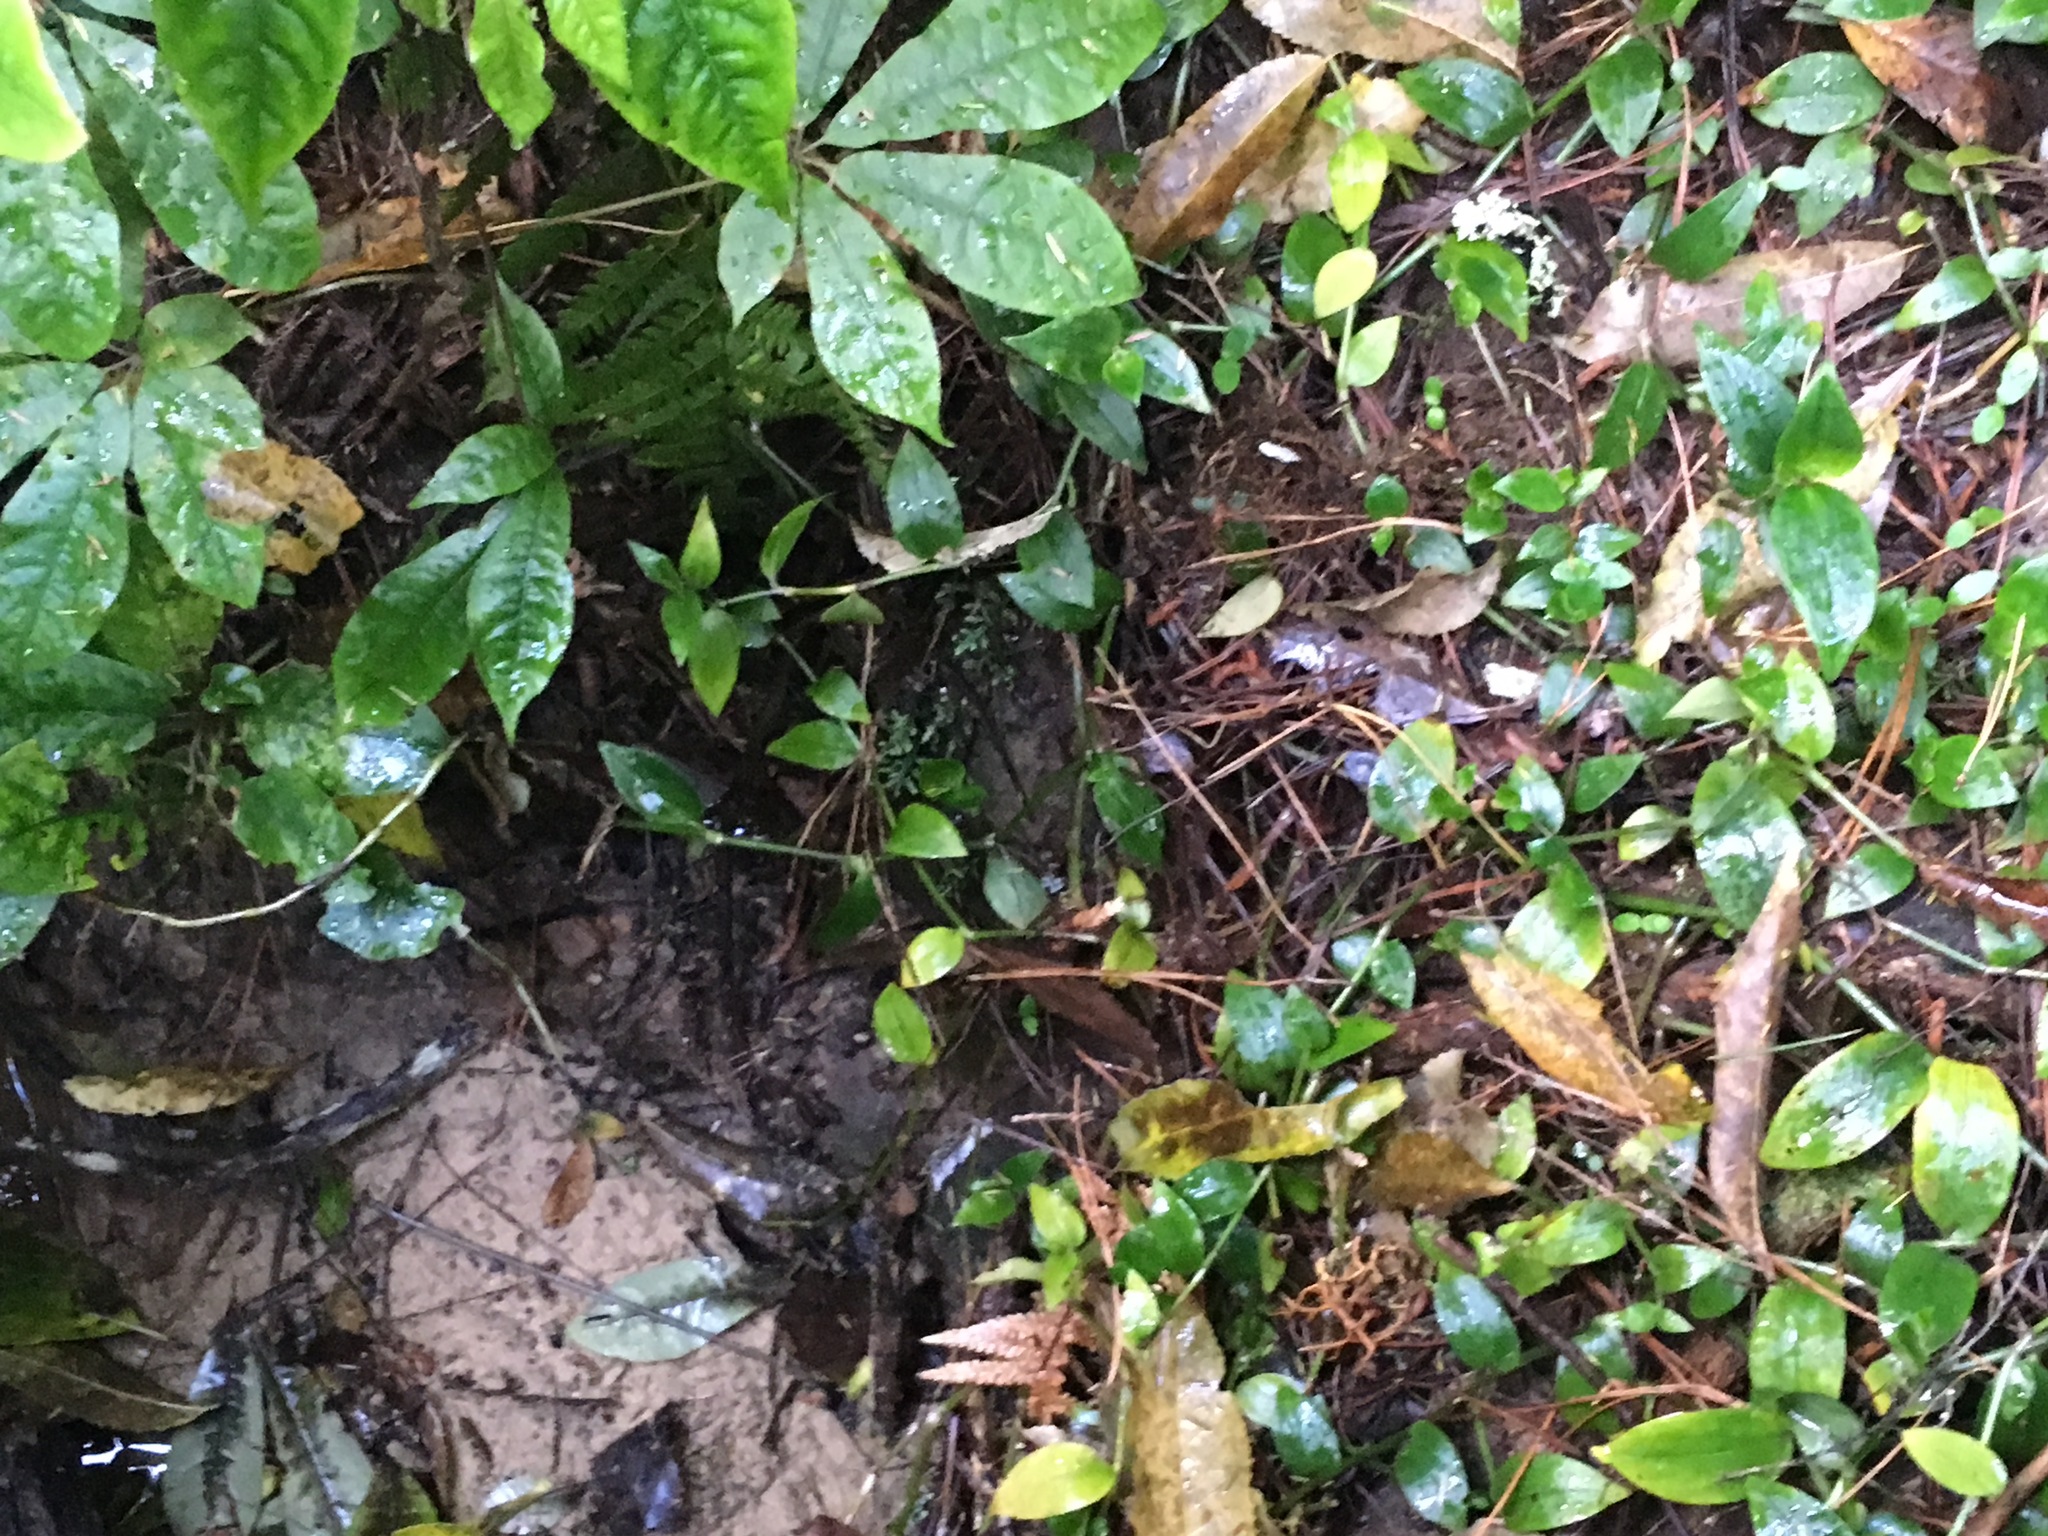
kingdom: Plantae
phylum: Tracheophyta
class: Liliopsida
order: Commelinales
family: Commelinaceae
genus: Tradescantia
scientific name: Tradescantia fluminensis
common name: Wandering-jew
